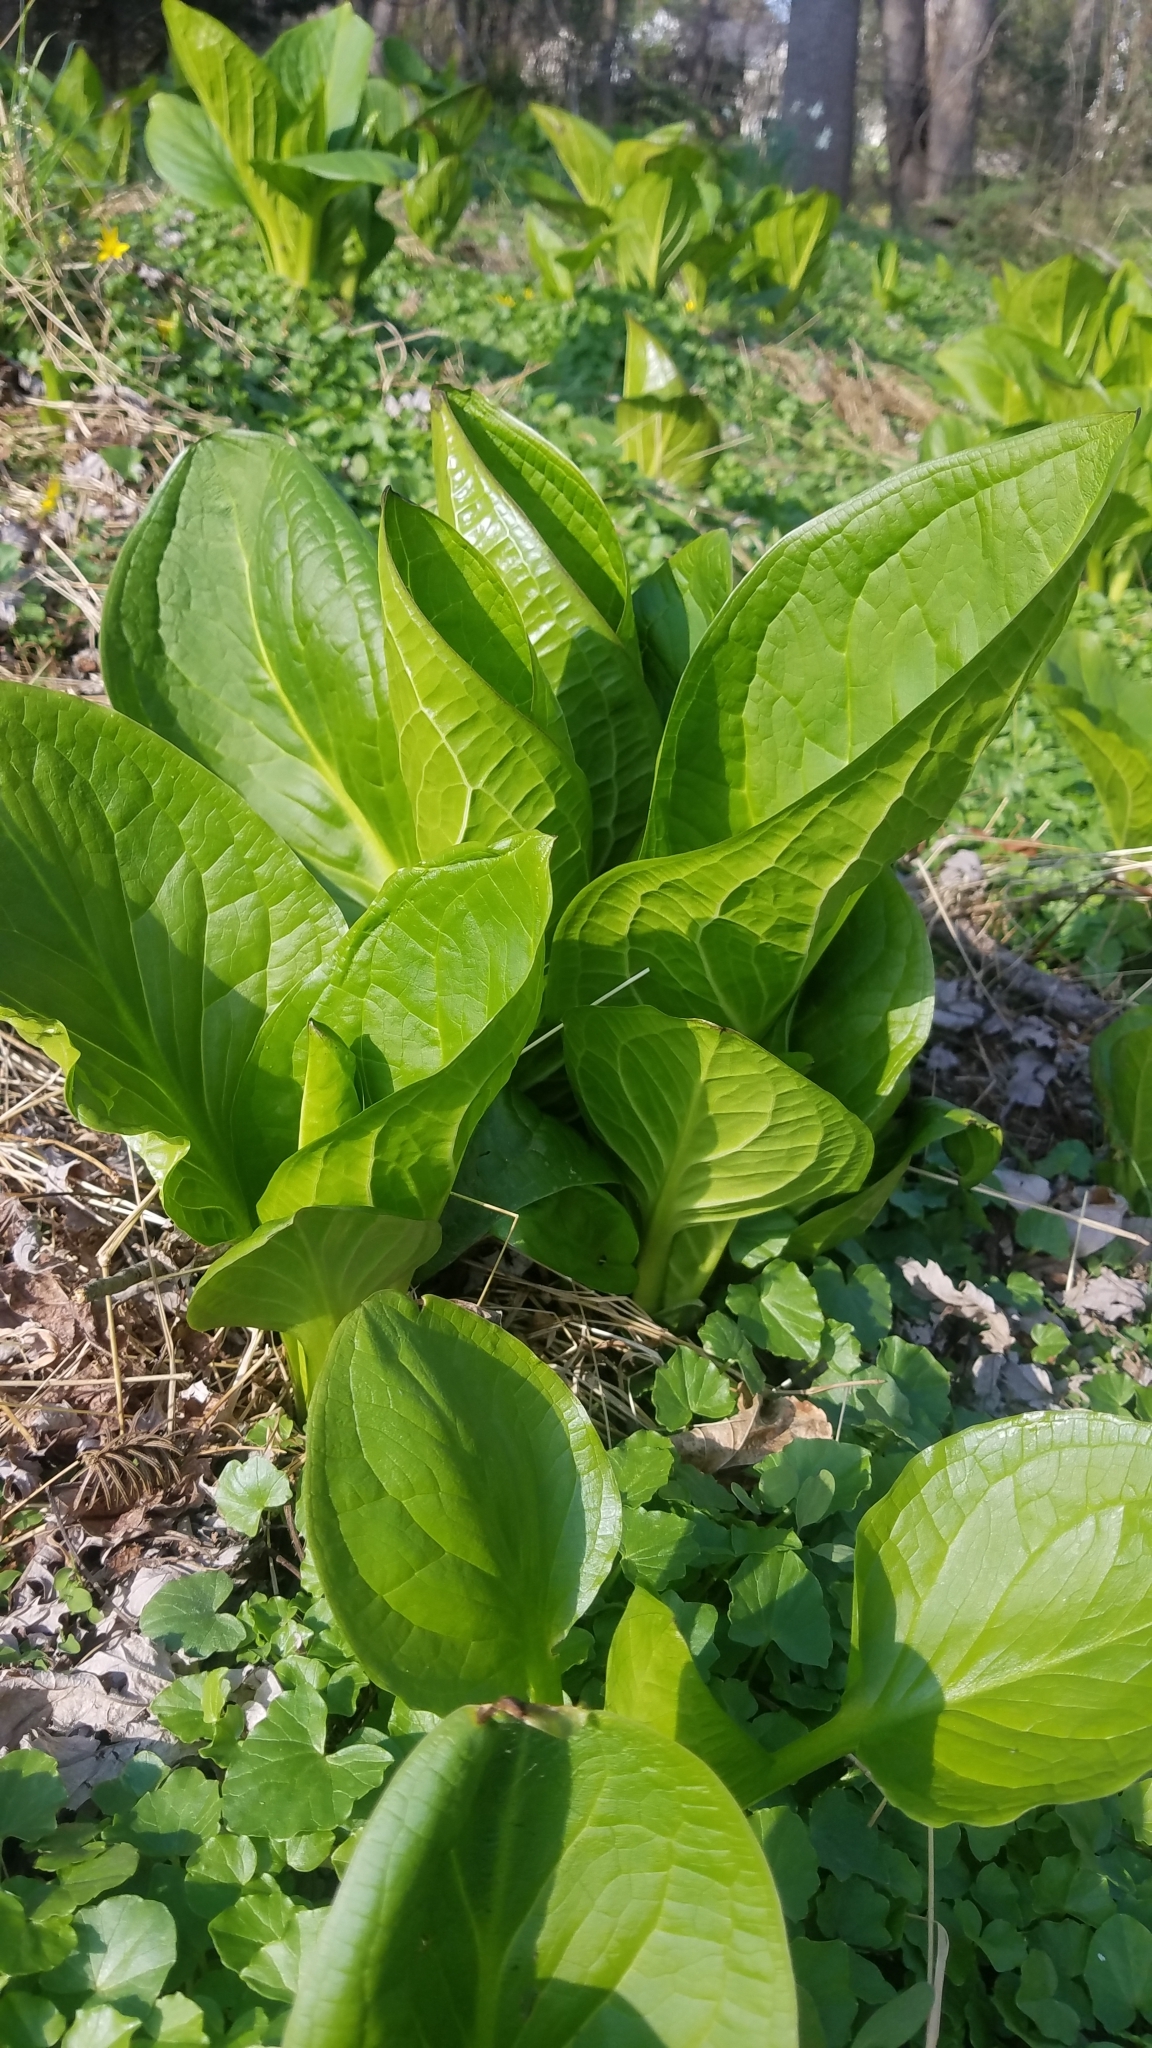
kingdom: Plantae
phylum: Tracheophyta
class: Liliopsida
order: Alismatales
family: Araceae
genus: Symplocarpus
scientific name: Symplocarpus foetidus
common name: Eastern skunk cabbage
